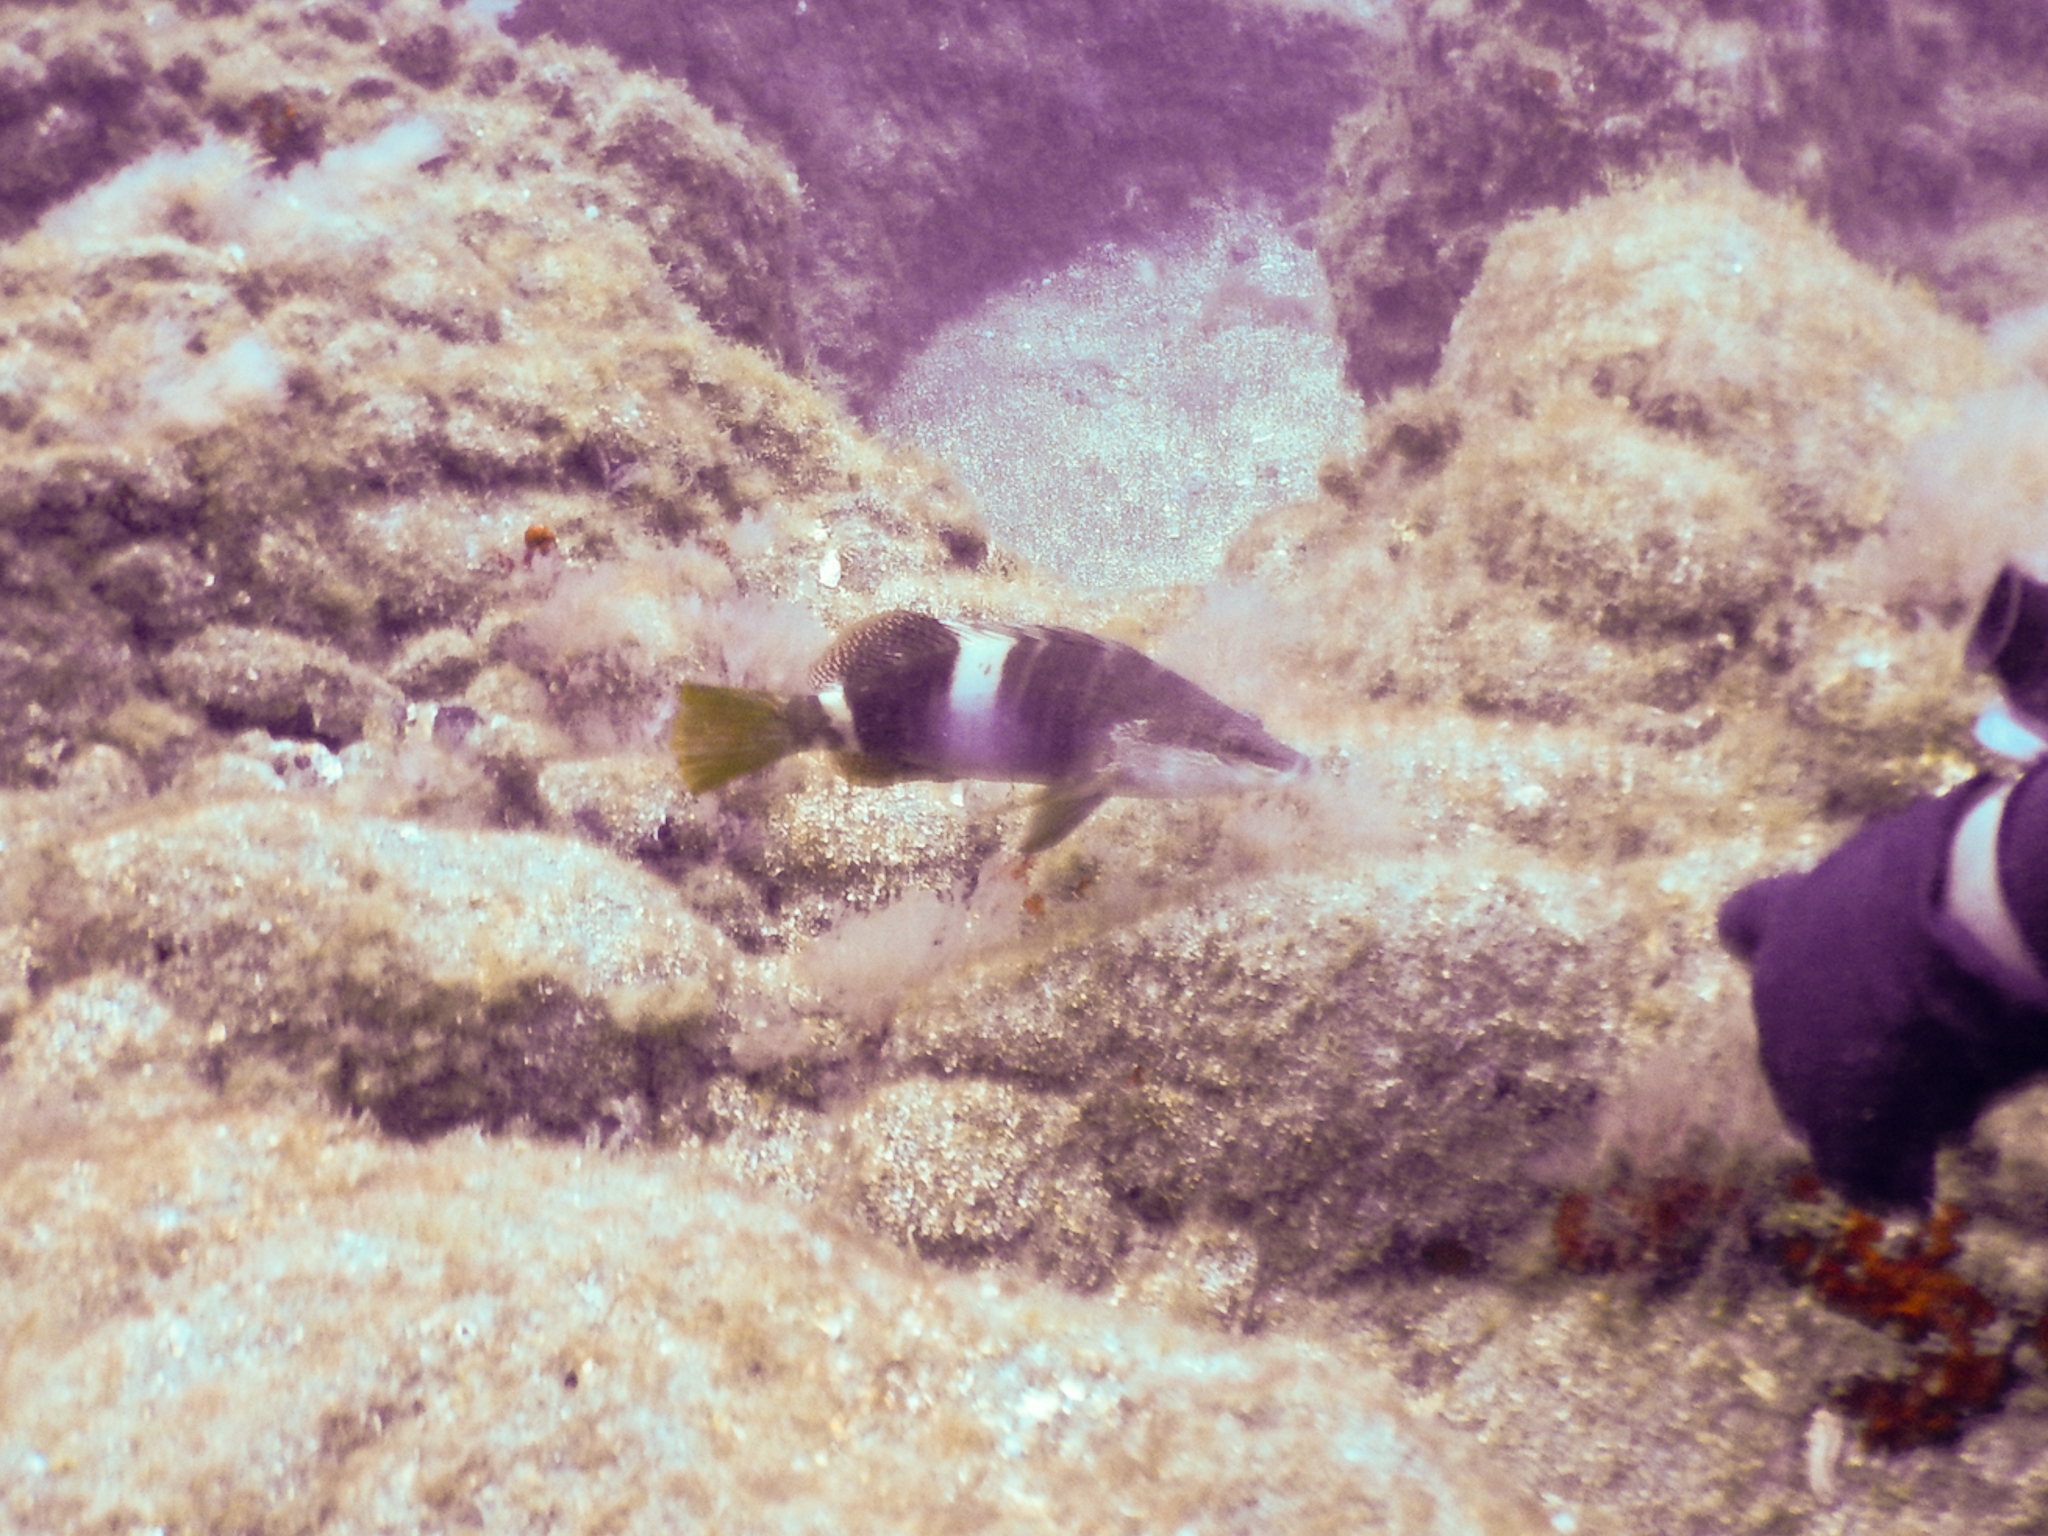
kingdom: Animalia
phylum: Chordata
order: Perciformes
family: Serranidae
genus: Serranus
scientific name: Serranus scriba
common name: Painted comber
